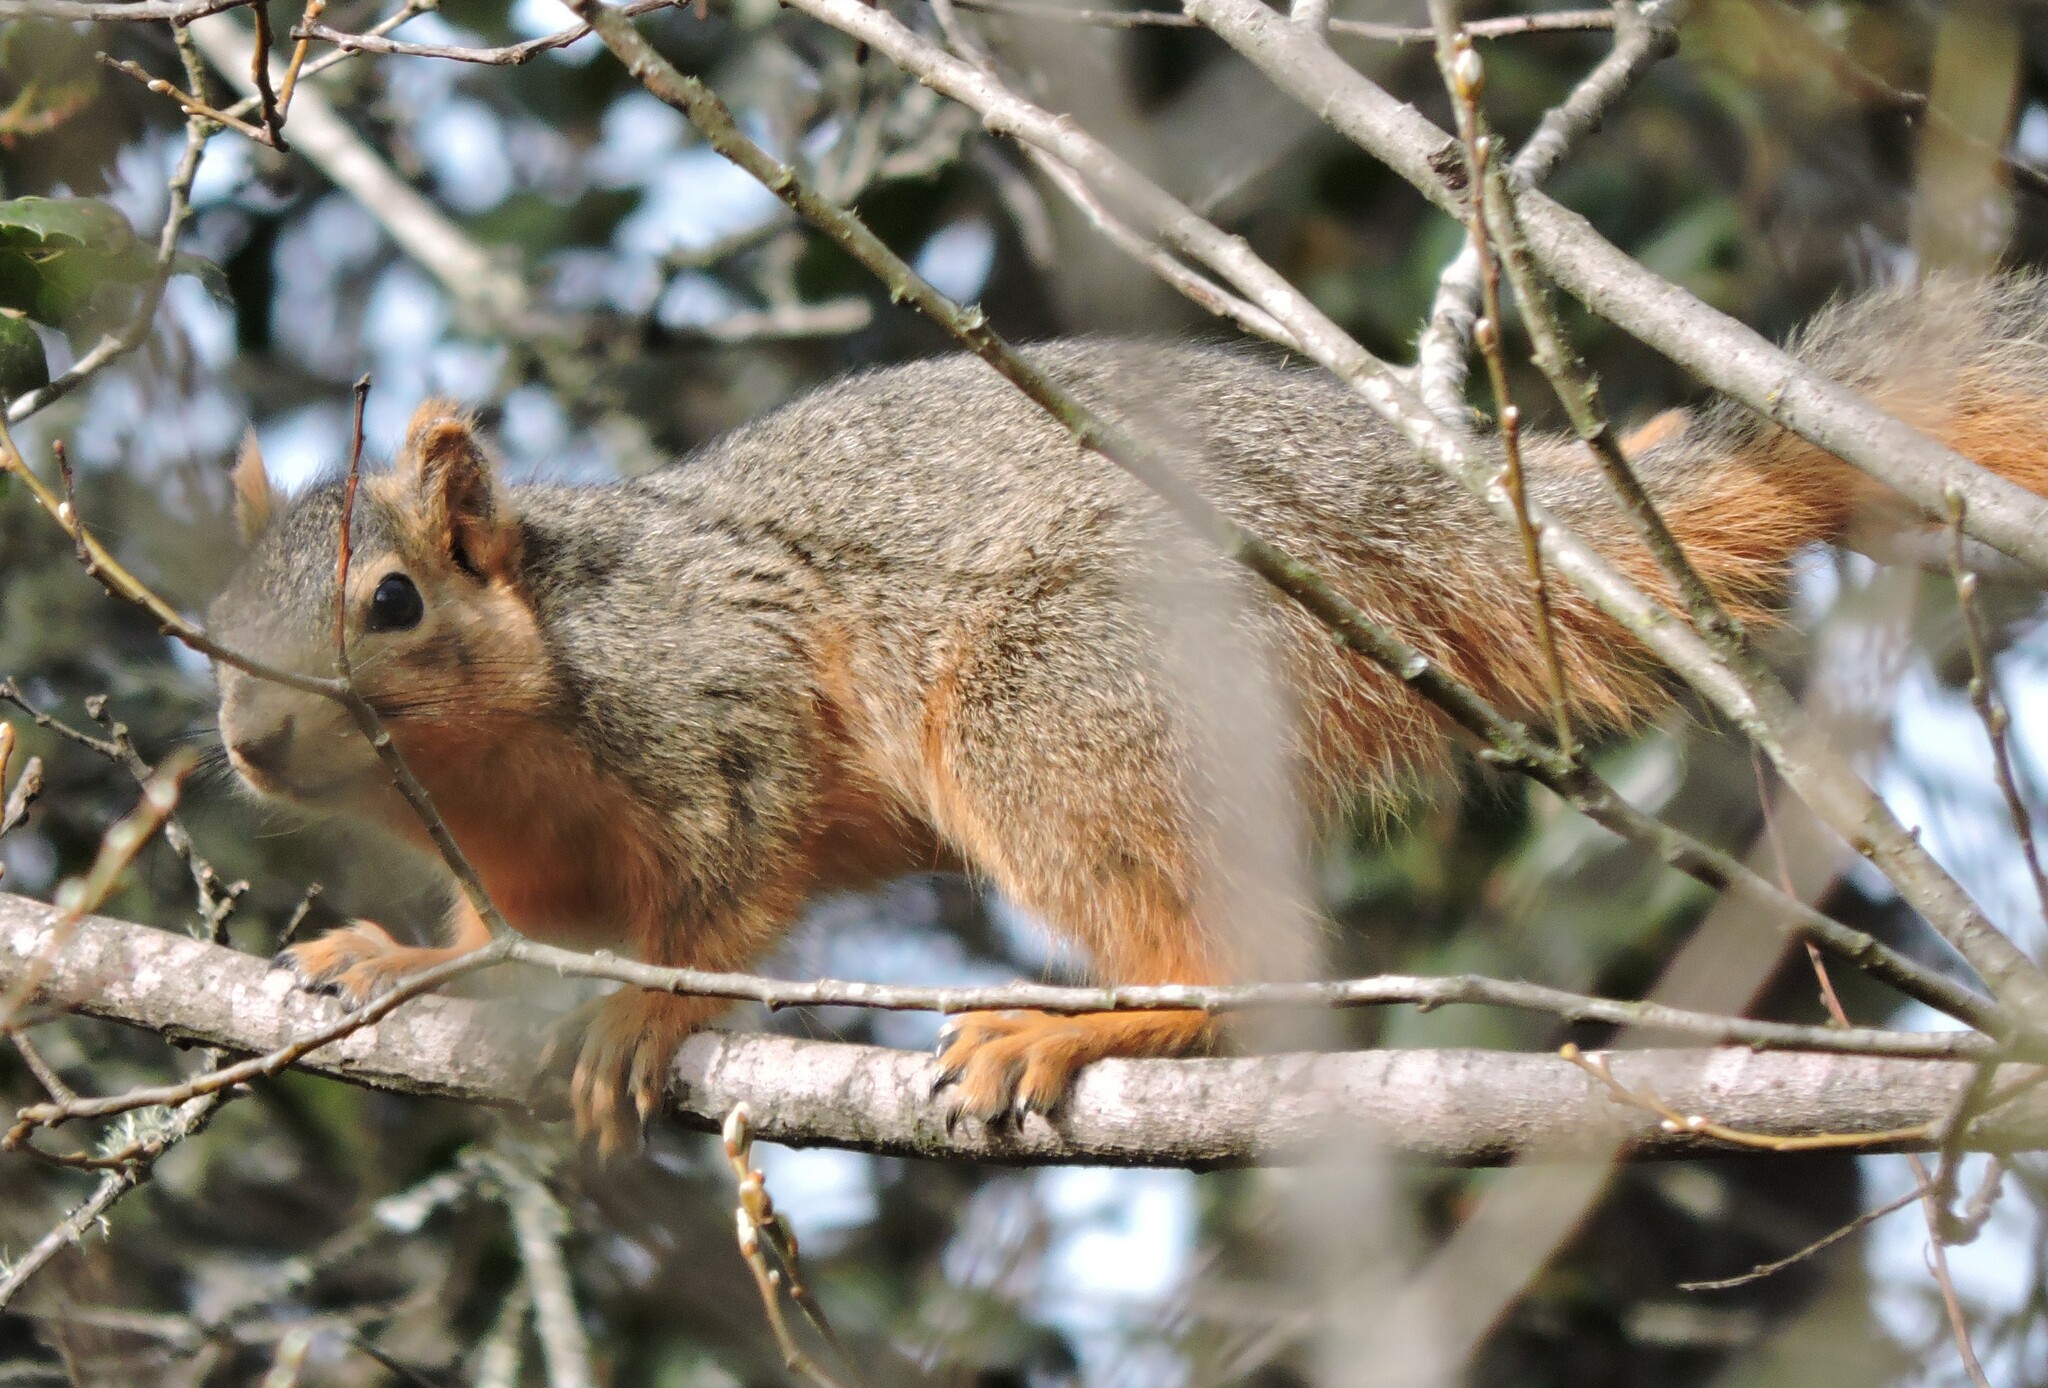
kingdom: Animalia
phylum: Chordata
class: Mammalia
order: Rodentia
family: Sciuridae
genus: Sciurus
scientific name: Sciurus niger
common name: Fox squirrel
